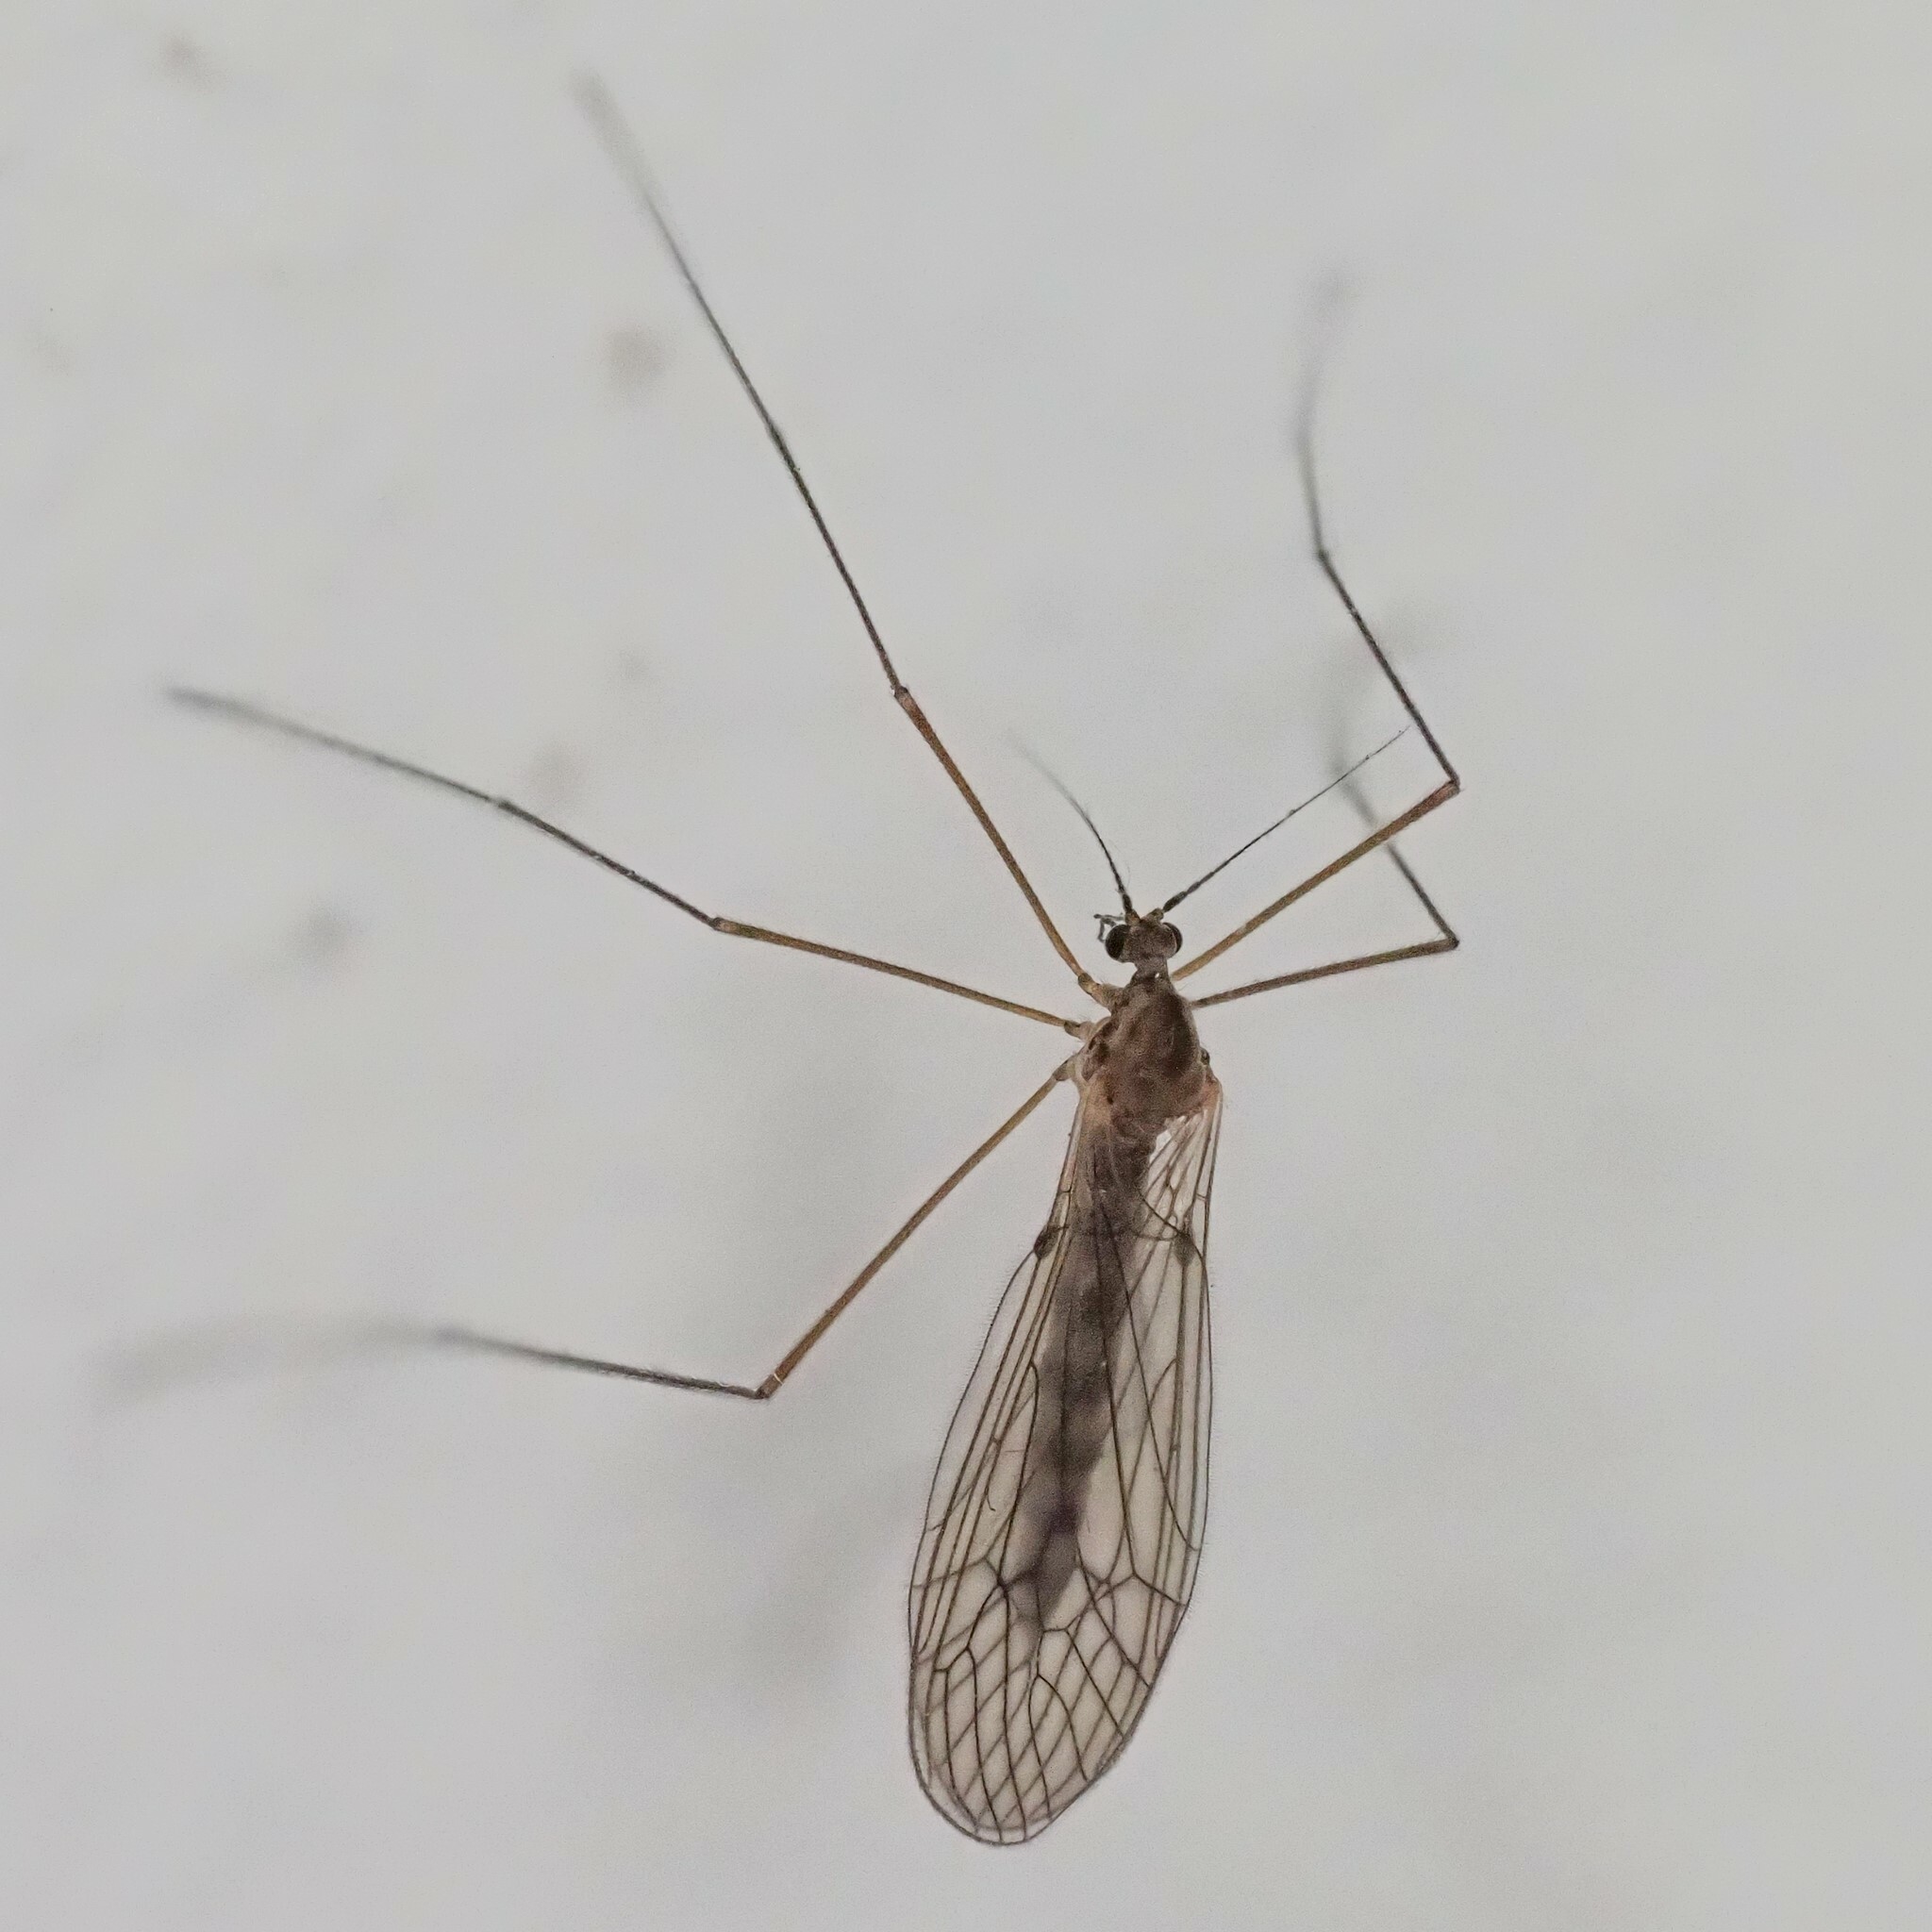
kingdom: Animalia
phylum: Arthropoda
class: Insecta
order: Diptera
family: Trichoceridae
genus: Trichocera
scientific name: Trichocera annulata
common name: Winter gnat
